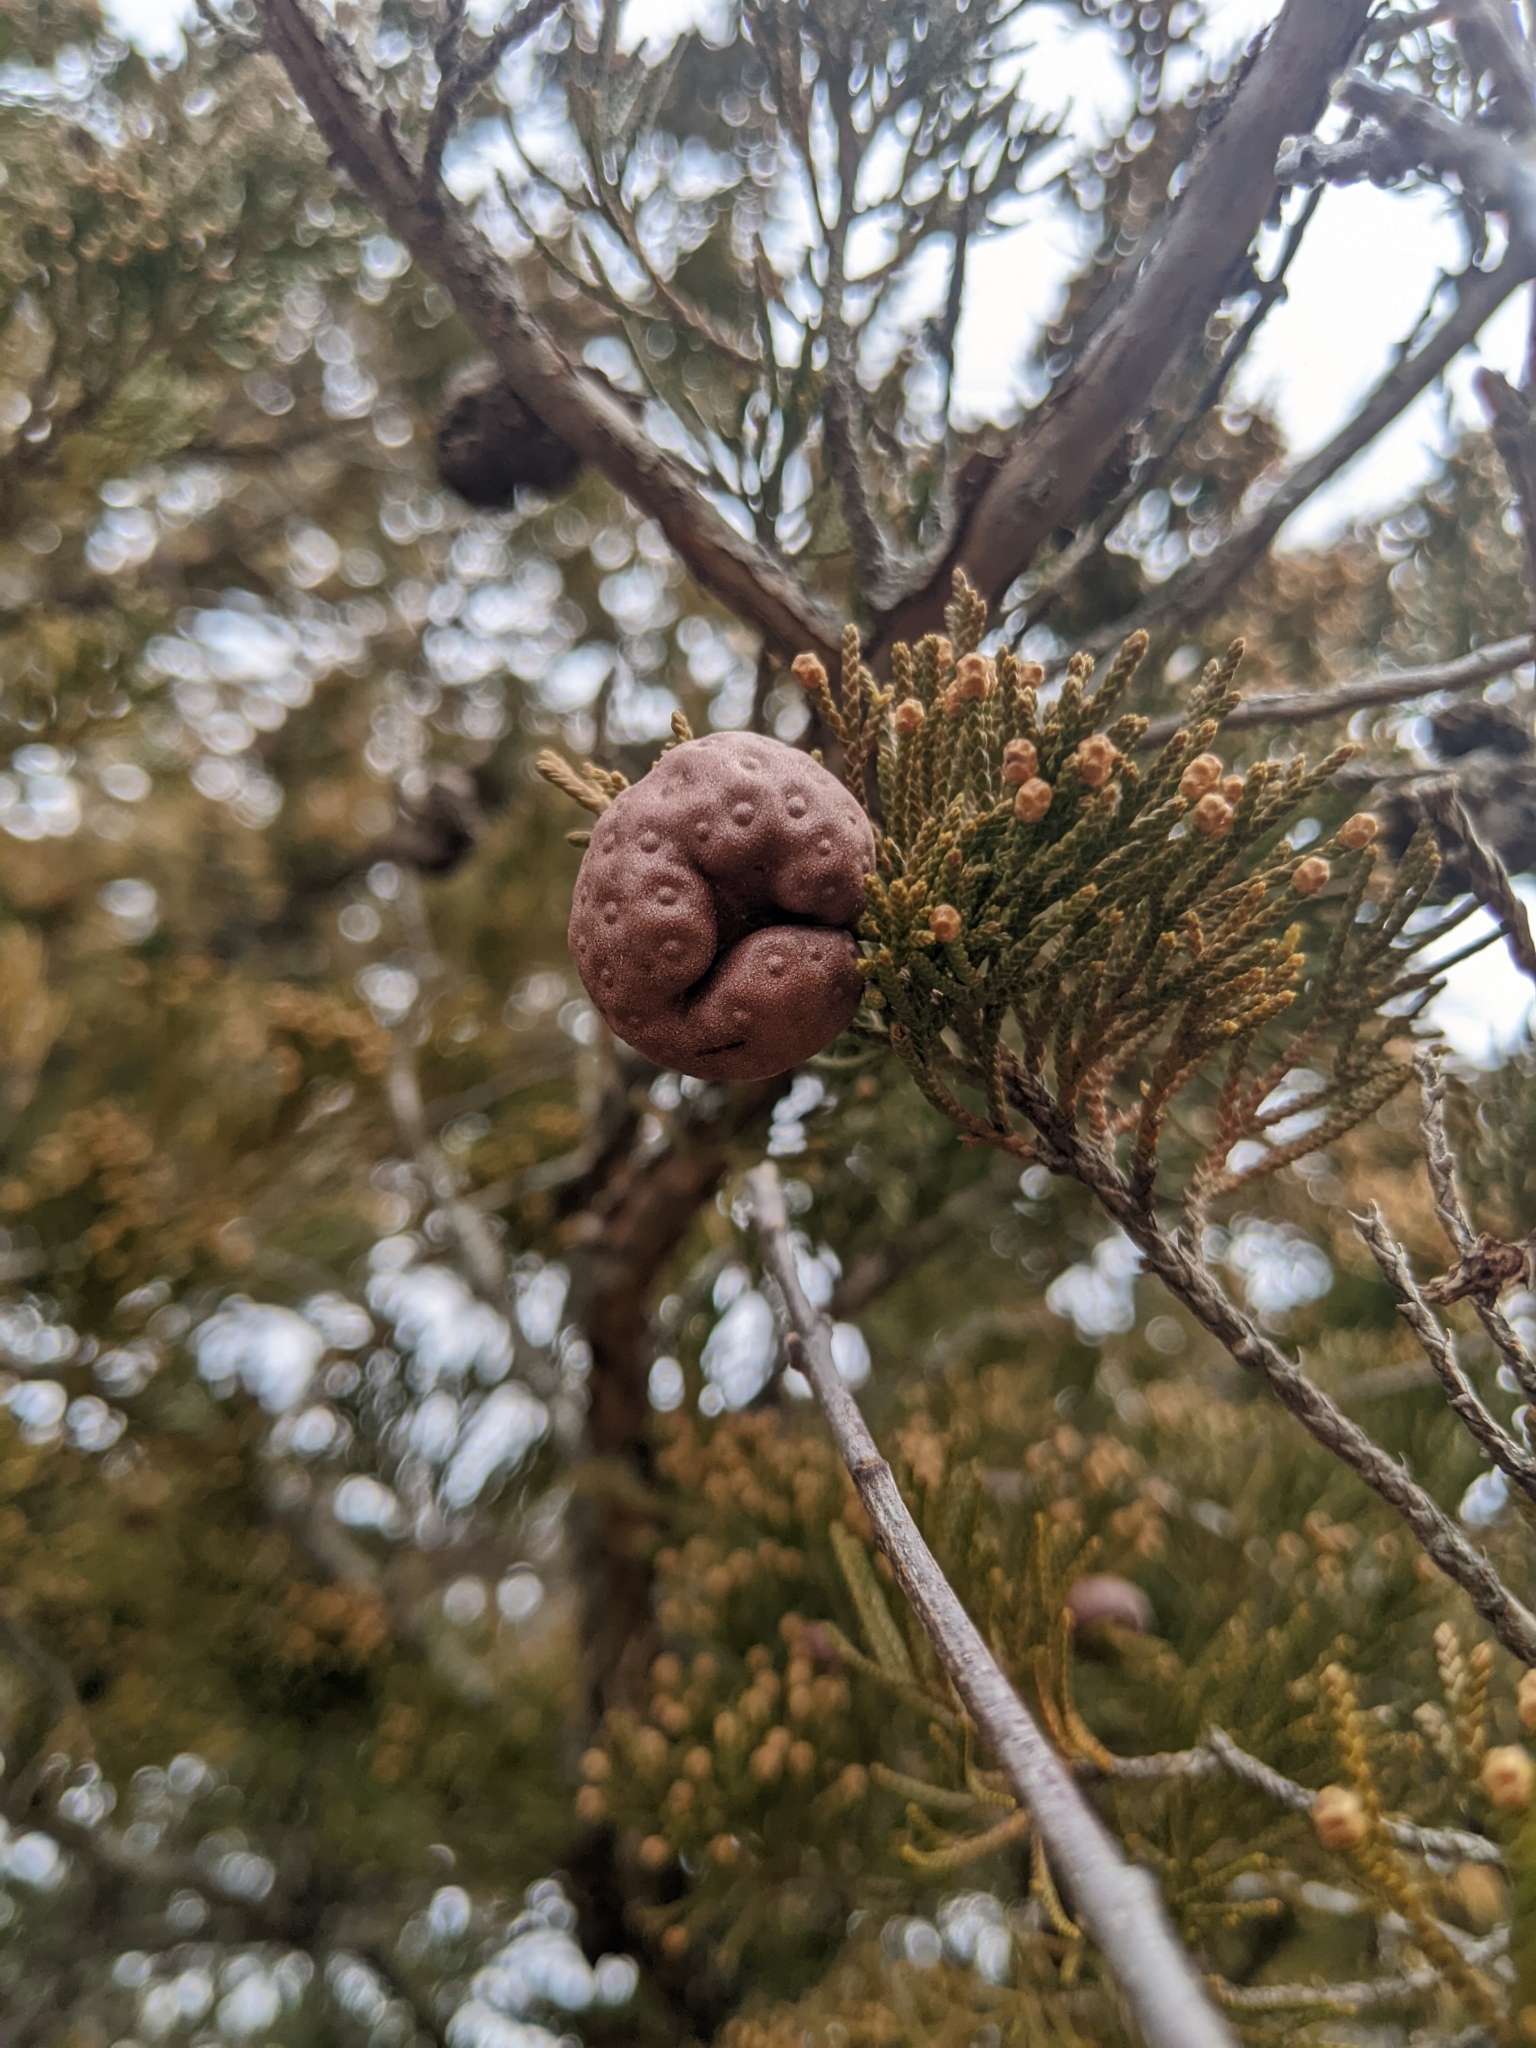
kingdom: Fungi
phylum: Basidiomycota
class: Pucciniomycetes
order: Pucciniales
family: Gymnosporangiaceae
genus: Gymnosporangium
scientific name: Gymnosporangium juniperi-virginianae
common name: Juniper-apple rust
